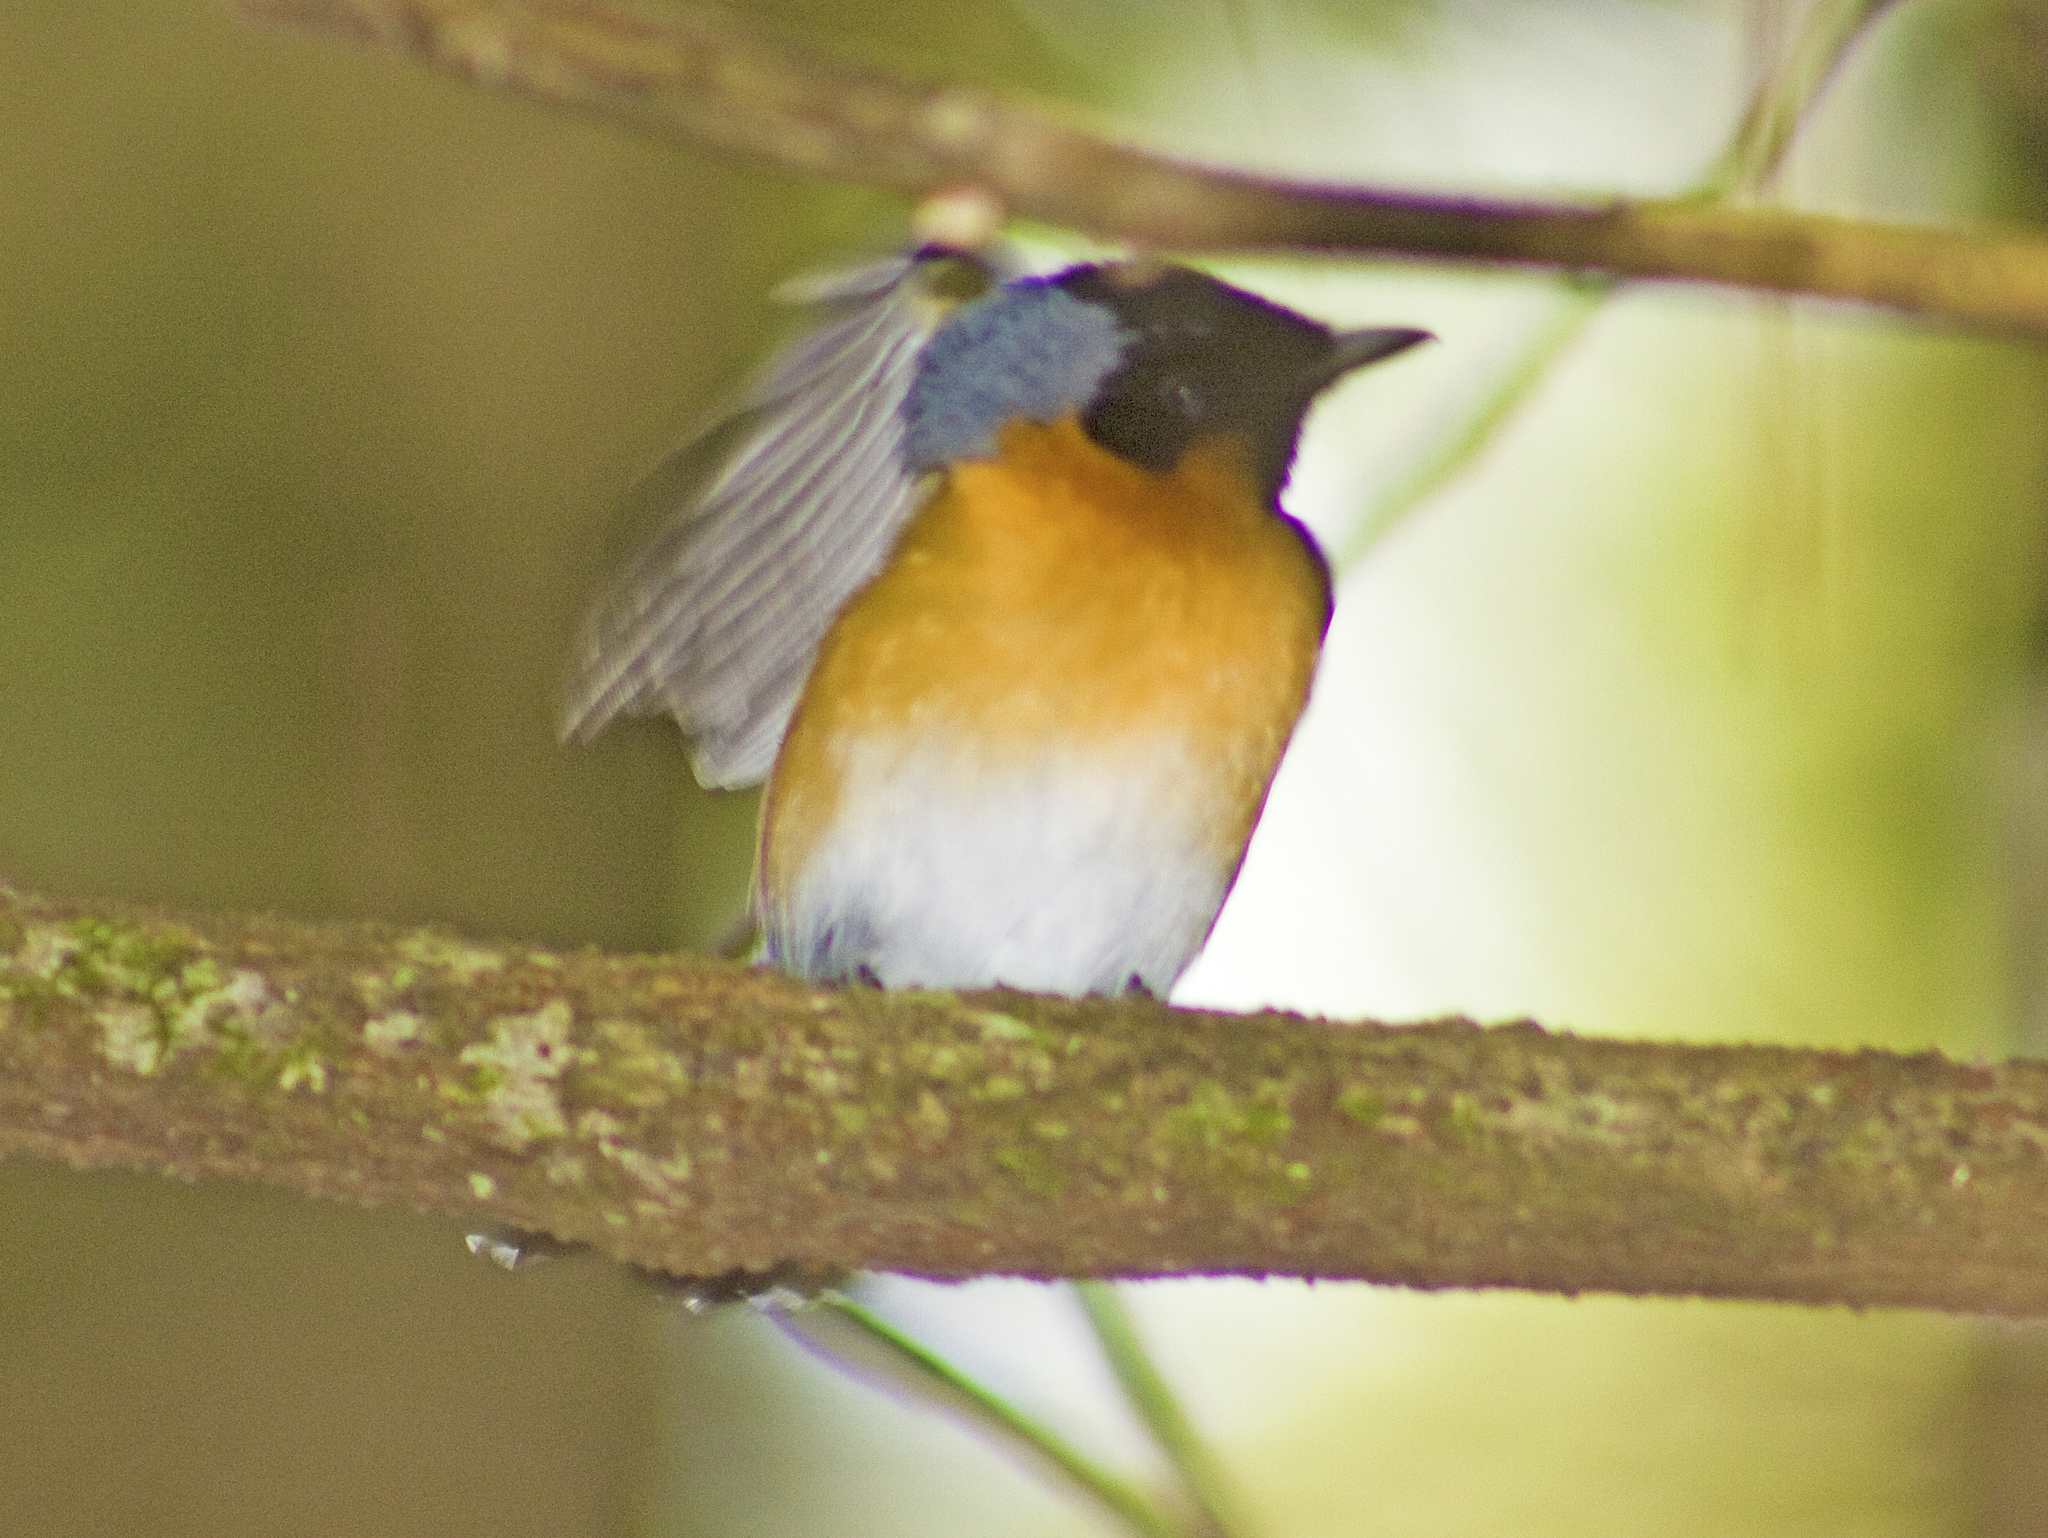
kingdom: Animalia
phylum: Chordata
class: Aves
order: Passeriformes
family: Monarchidae
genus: Symposiachrus
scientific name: Symposiachrus trivirgatus
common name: Spectacled monarch
